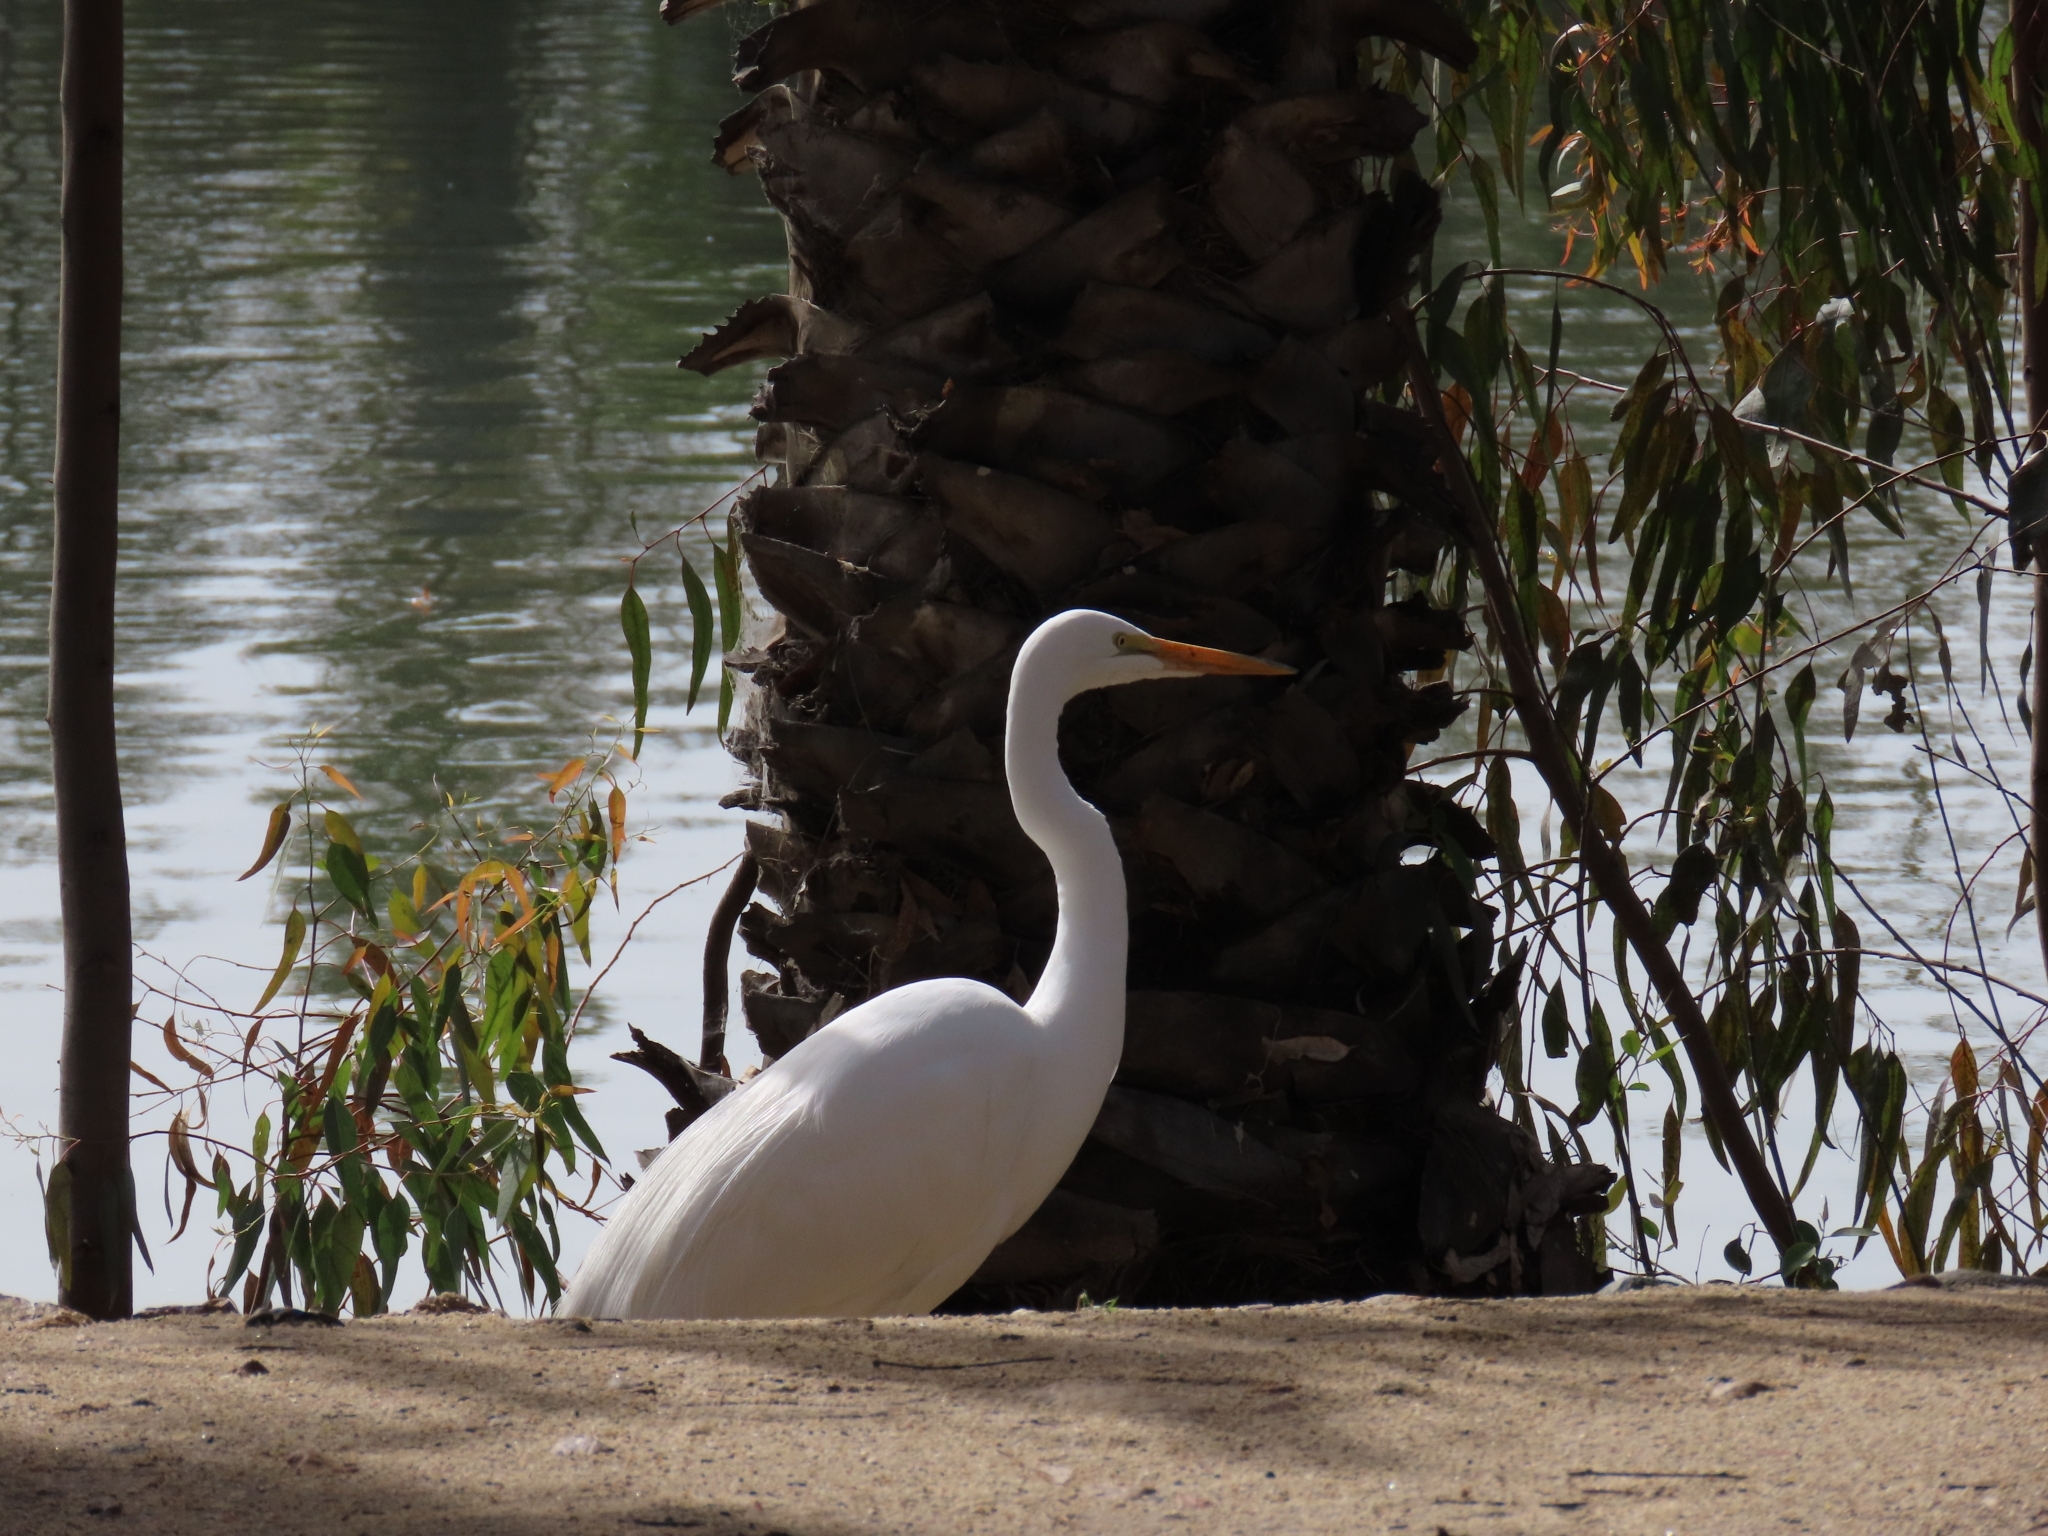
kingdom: Animalia
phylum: Chordata
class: Aves
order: Pelecaniformes
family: Ardeidae
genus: Ardea
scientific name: Ardea alba
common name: Great egret
